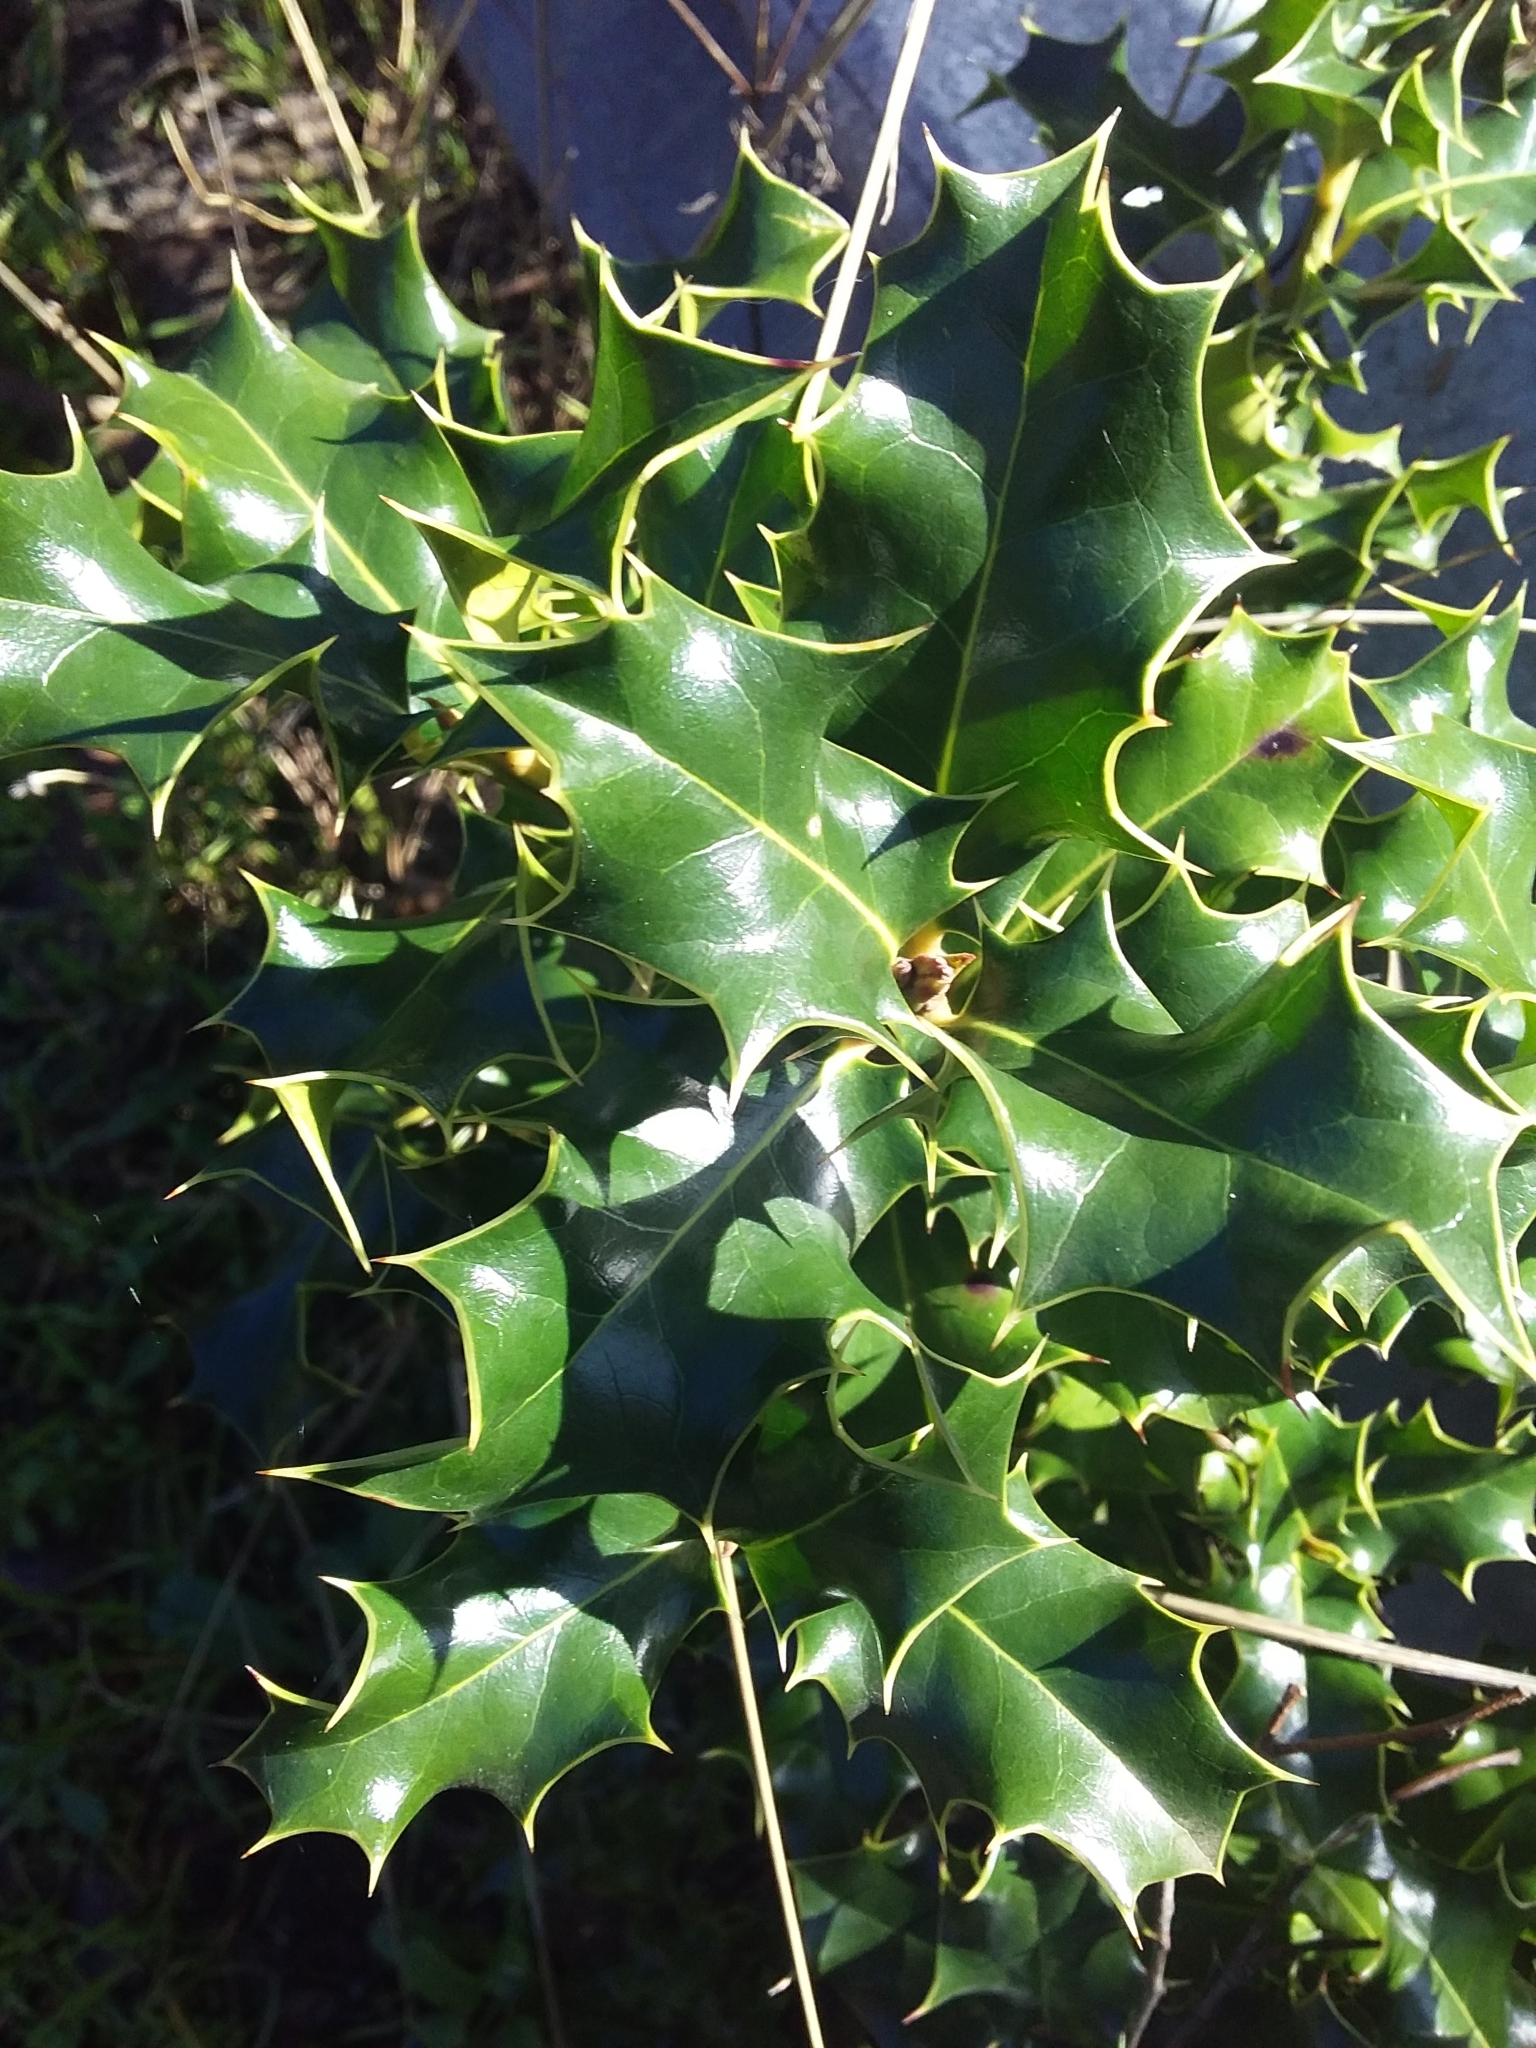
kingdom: Plantae
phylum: Tracheophyta
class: Magnoliopsida
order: Aquifoliales
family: Aquifoliaceae
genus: Ilex
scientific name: Ilex aquifolium
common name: English holly
